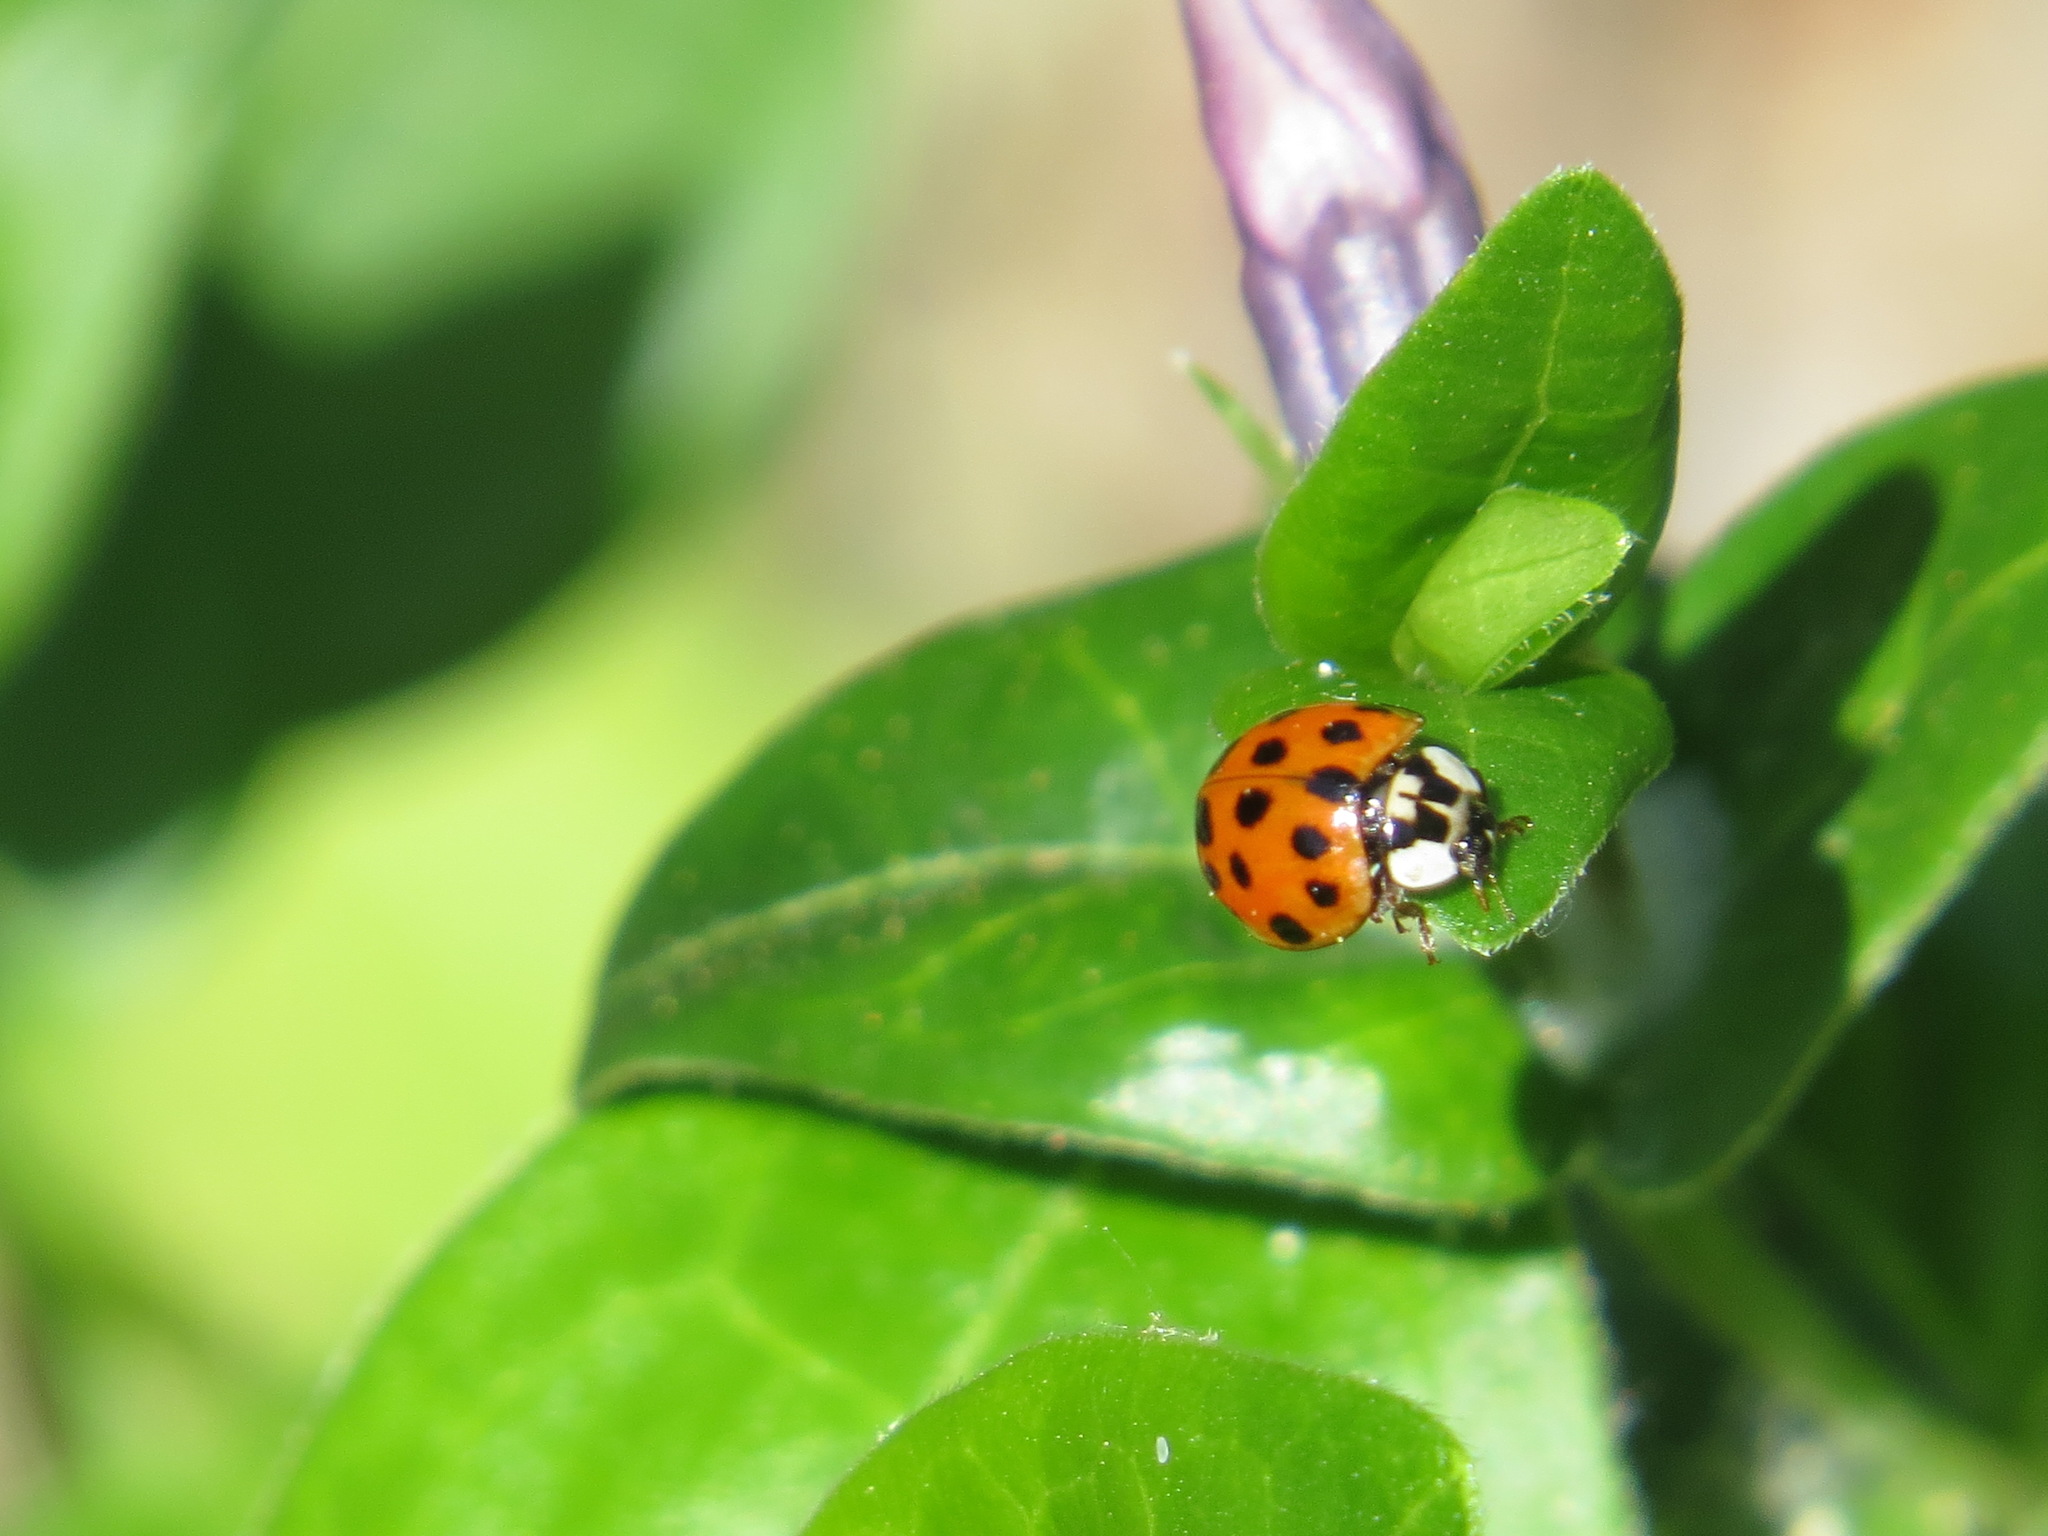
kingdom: Animalia
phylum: Arthropoda
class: Insecta
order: Coleoptera
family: Coccinellidae
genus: Harmonia
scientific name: Harmonia axyridis
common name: Harlequin ladybird
